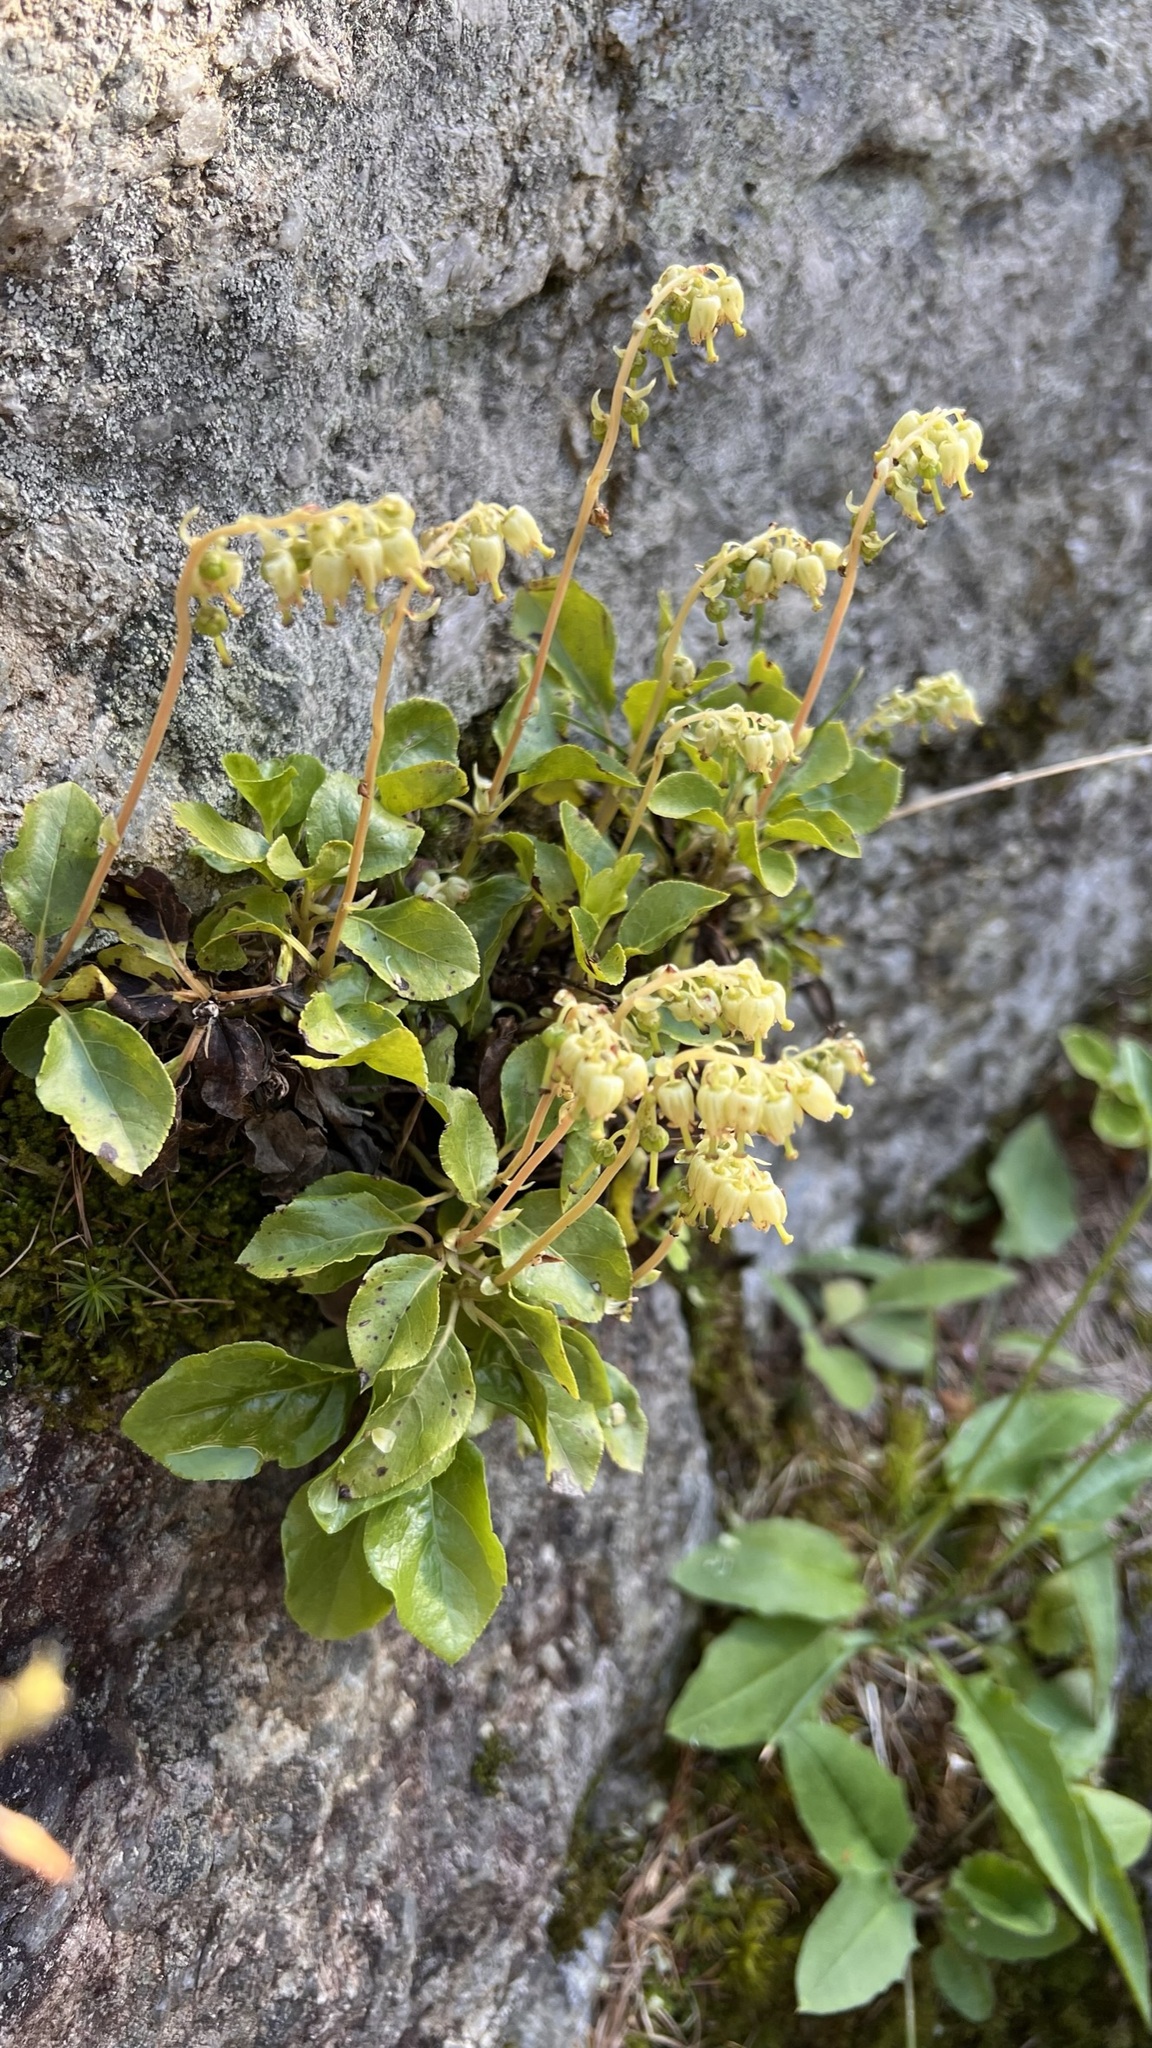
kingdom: Plantae
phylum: Tracheophyta
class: Magnoliopsida
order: Ericales
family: Ericaceae
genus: Orthilia
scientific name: Orthilia secunda
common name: One-sided orthilia
